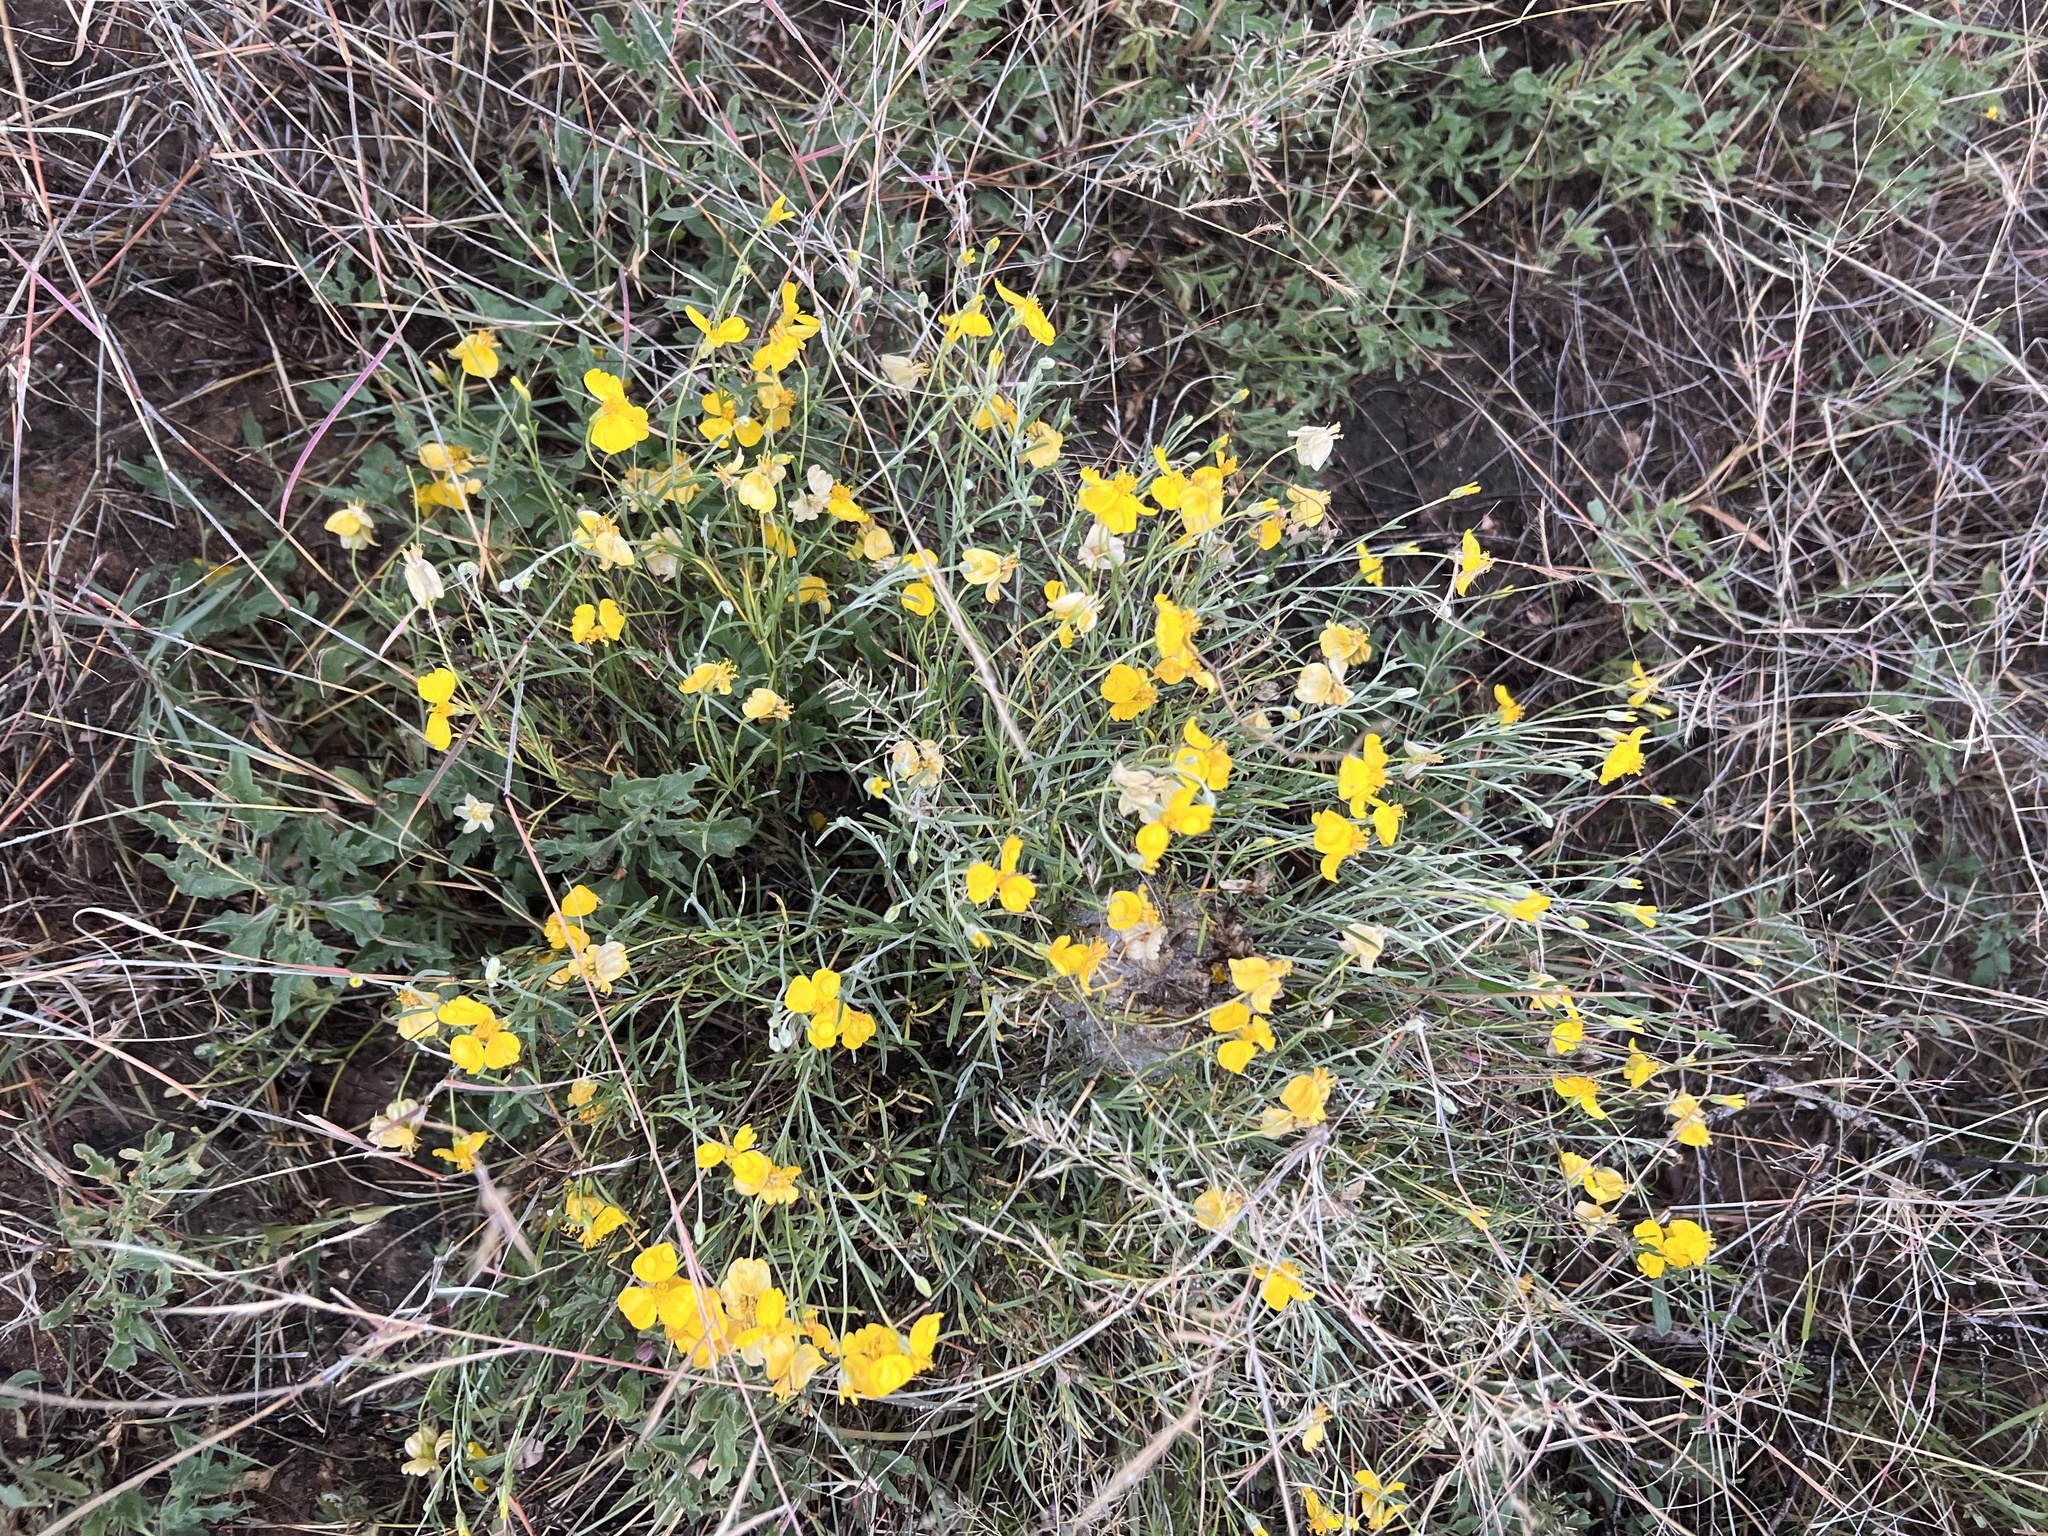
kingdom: Plantae
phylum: Tracheophyta
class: Magnoliopsida
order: Asterales
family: Asteraceae
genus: Psilostrophe
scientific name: Psilostrophe cooperi
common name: White-stem paper-flower
